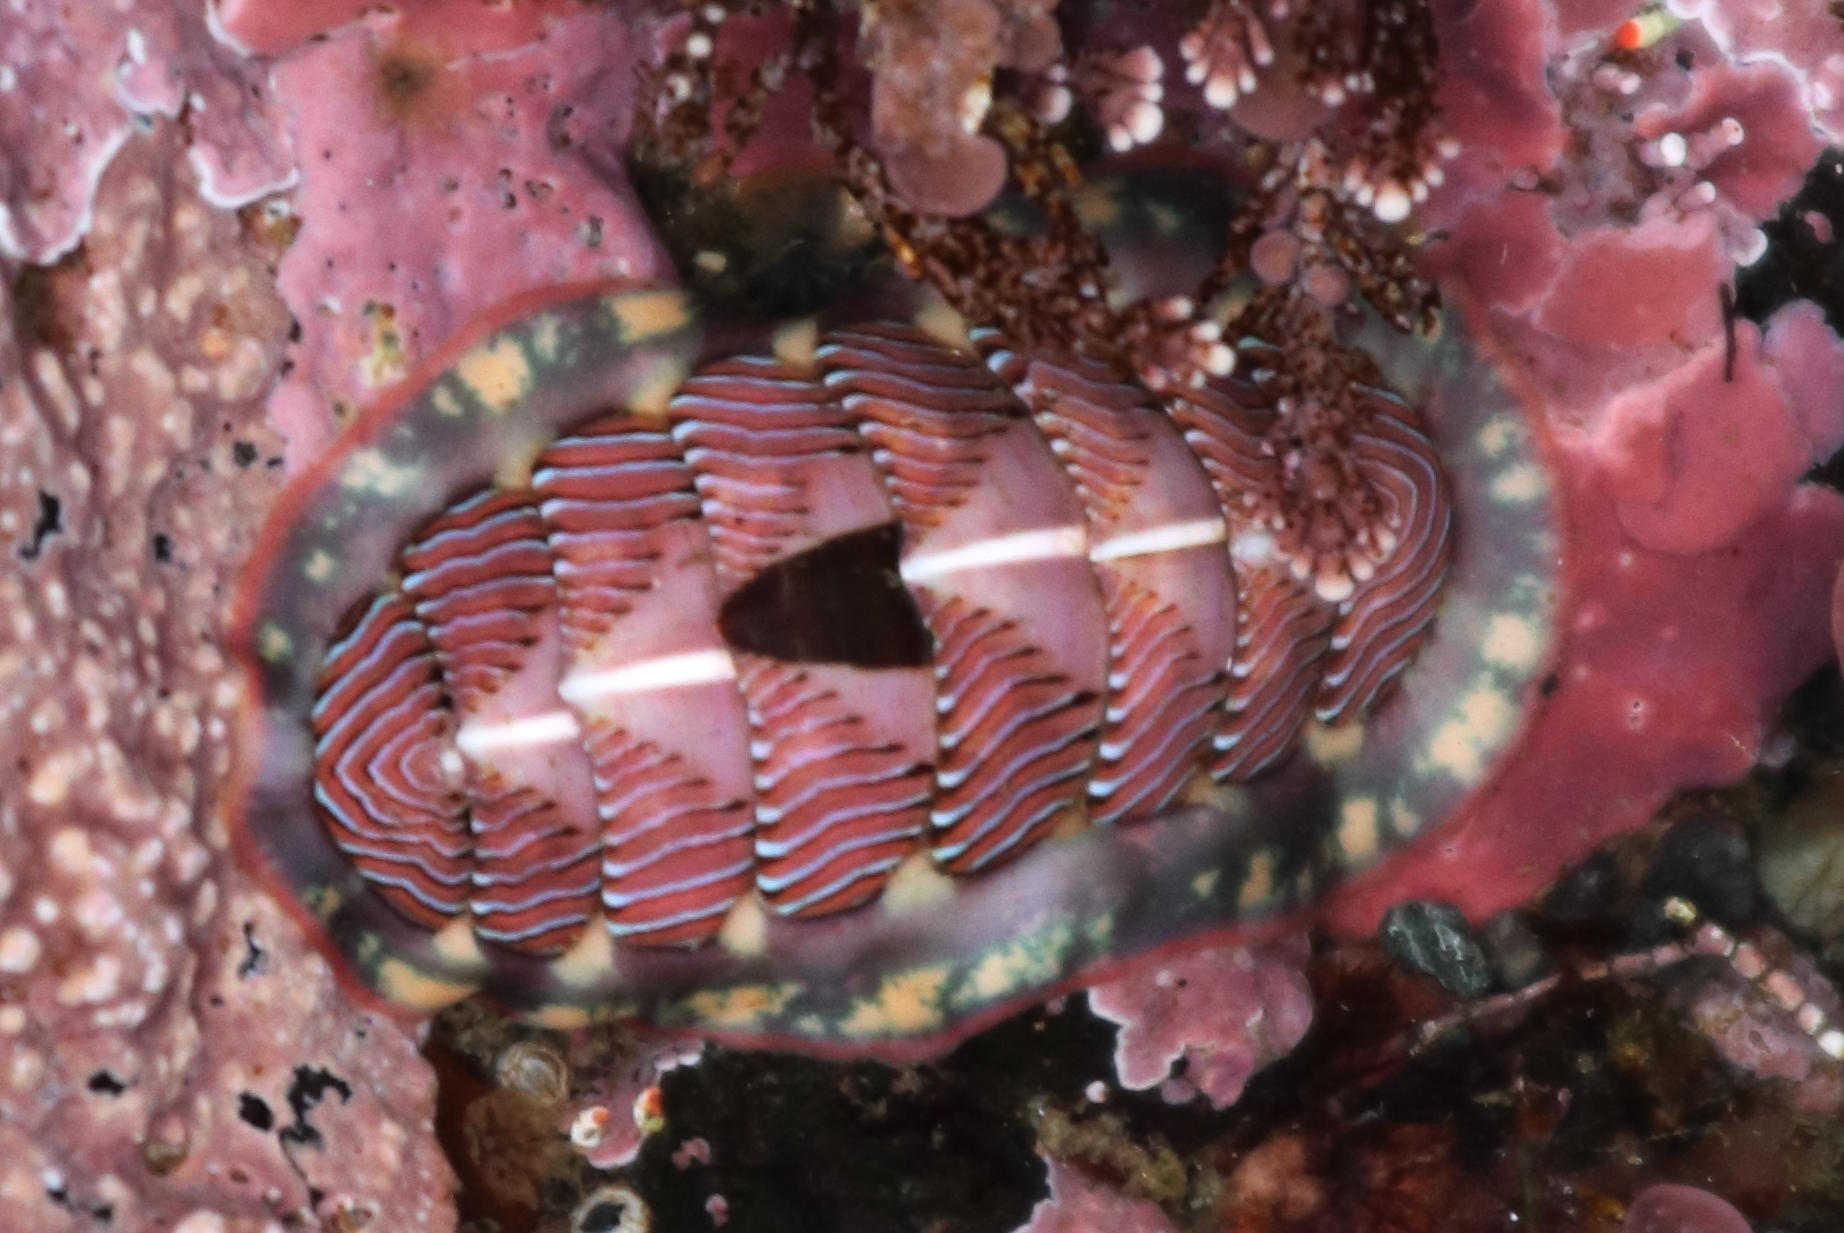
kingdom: Animalia
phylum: Mollusca
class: Polyplacophora
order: Chitonida
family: Tonicellidae
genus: Tonicella
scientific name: Tonicella lineata
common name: Lined chiton
